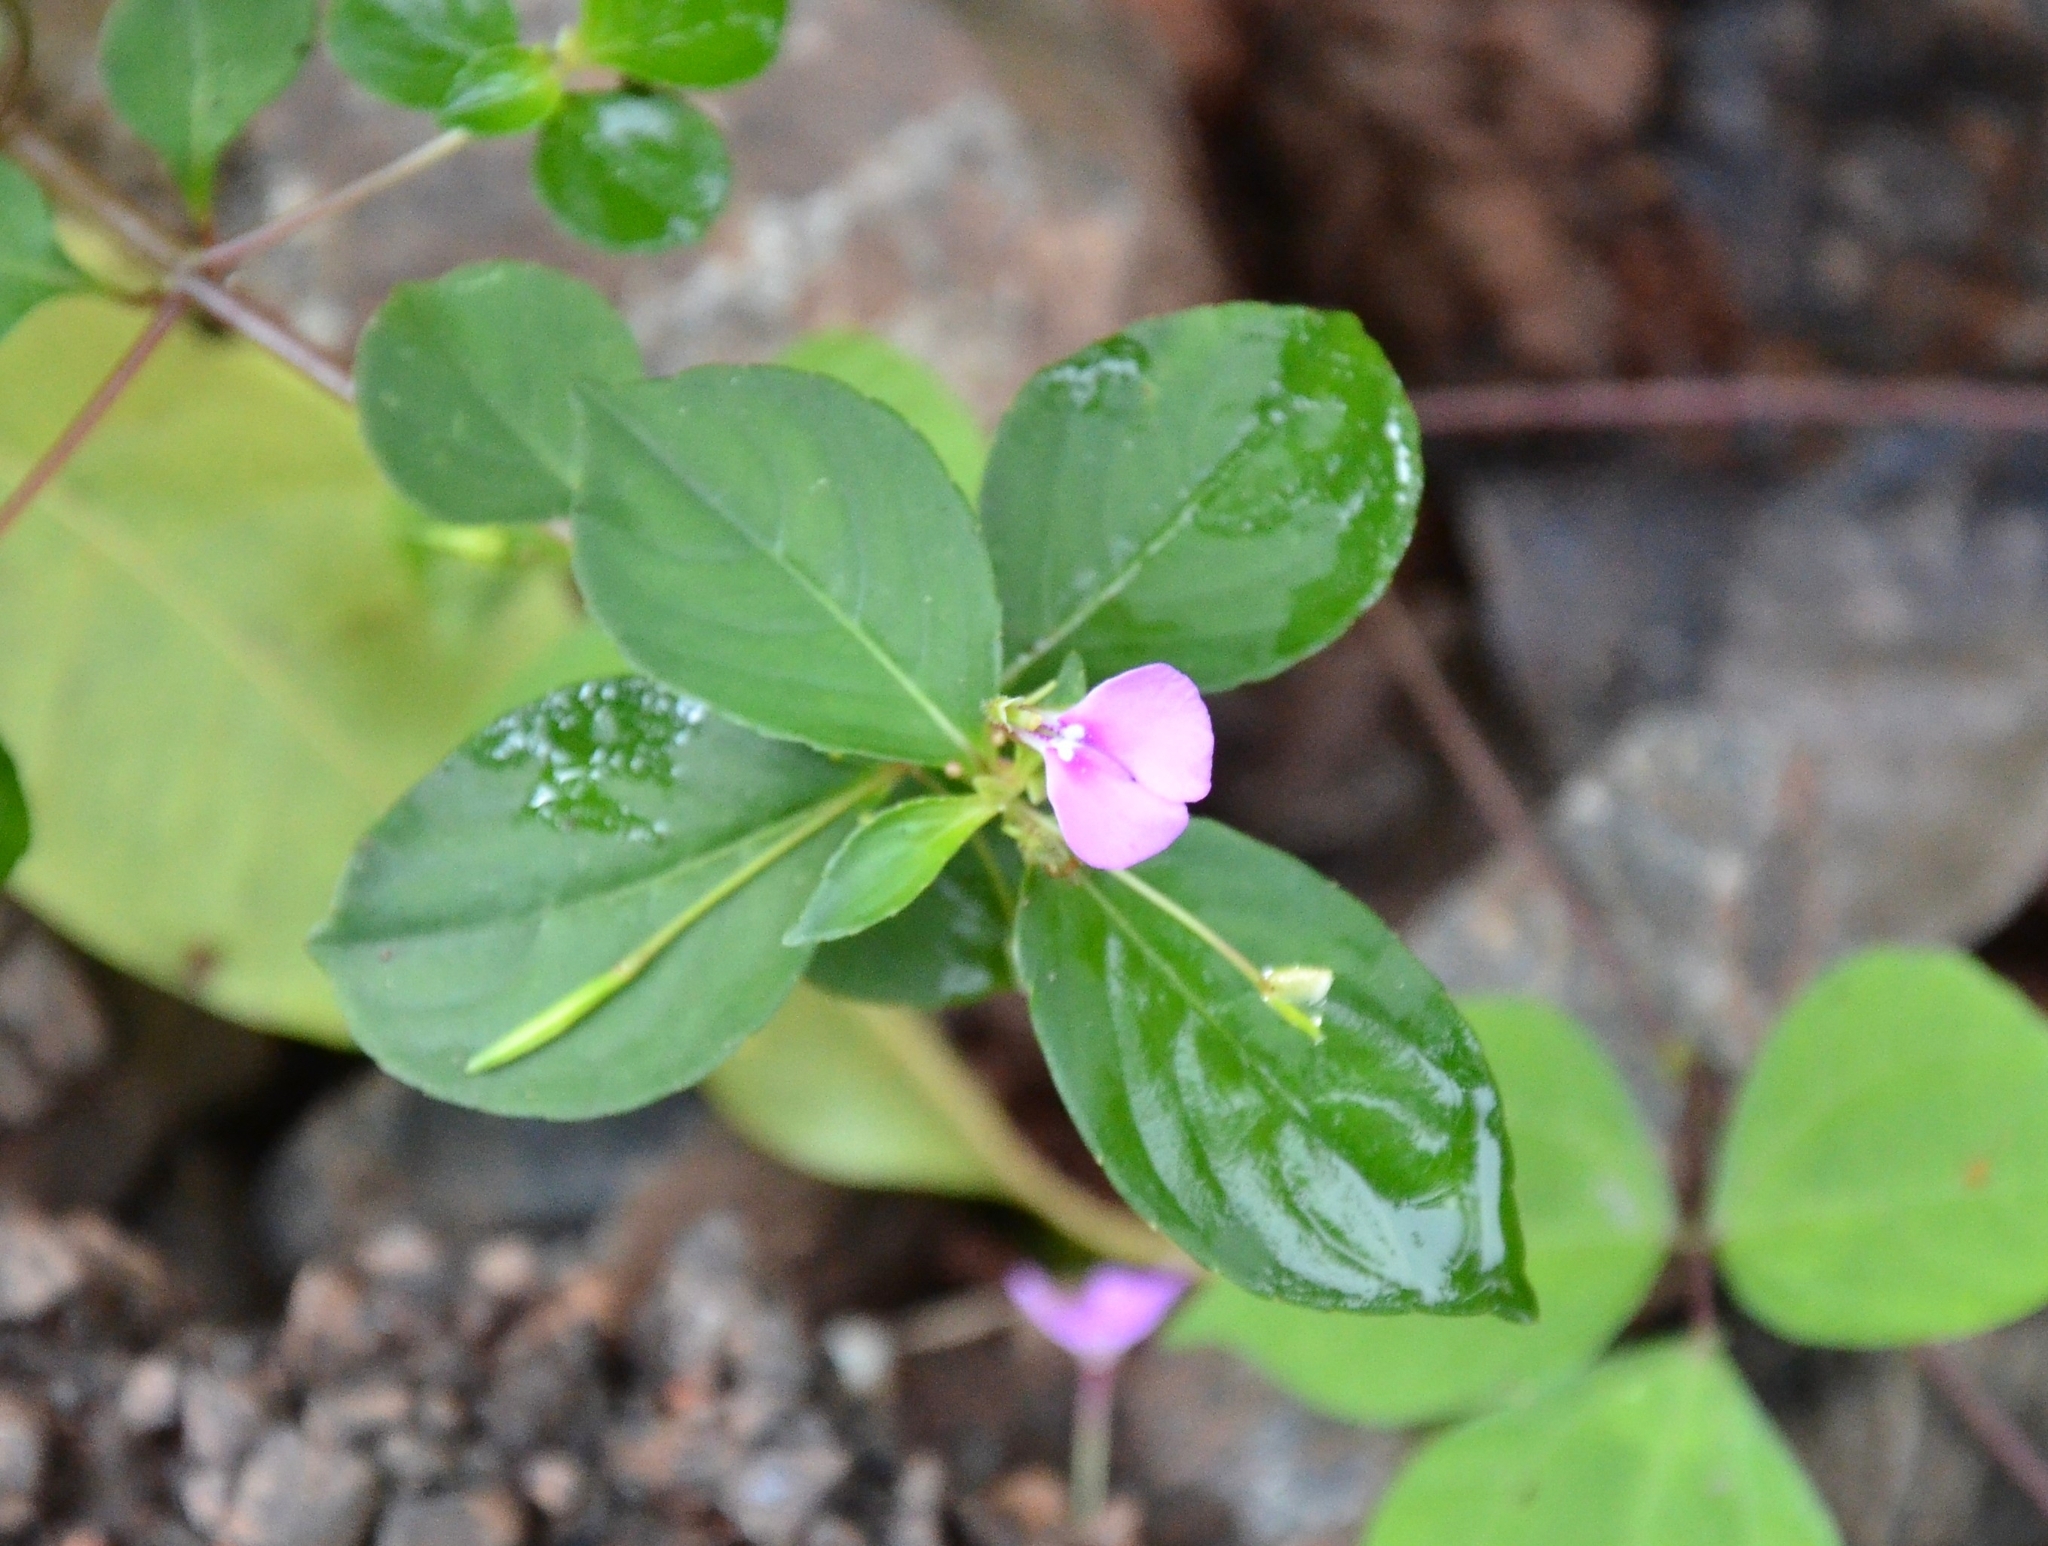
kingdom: Plantae
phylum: Tracheophyta
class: Magnoliopsida
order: Ericales
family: Balsaminaceae
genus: Impatiens
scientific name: Impatiens minor
